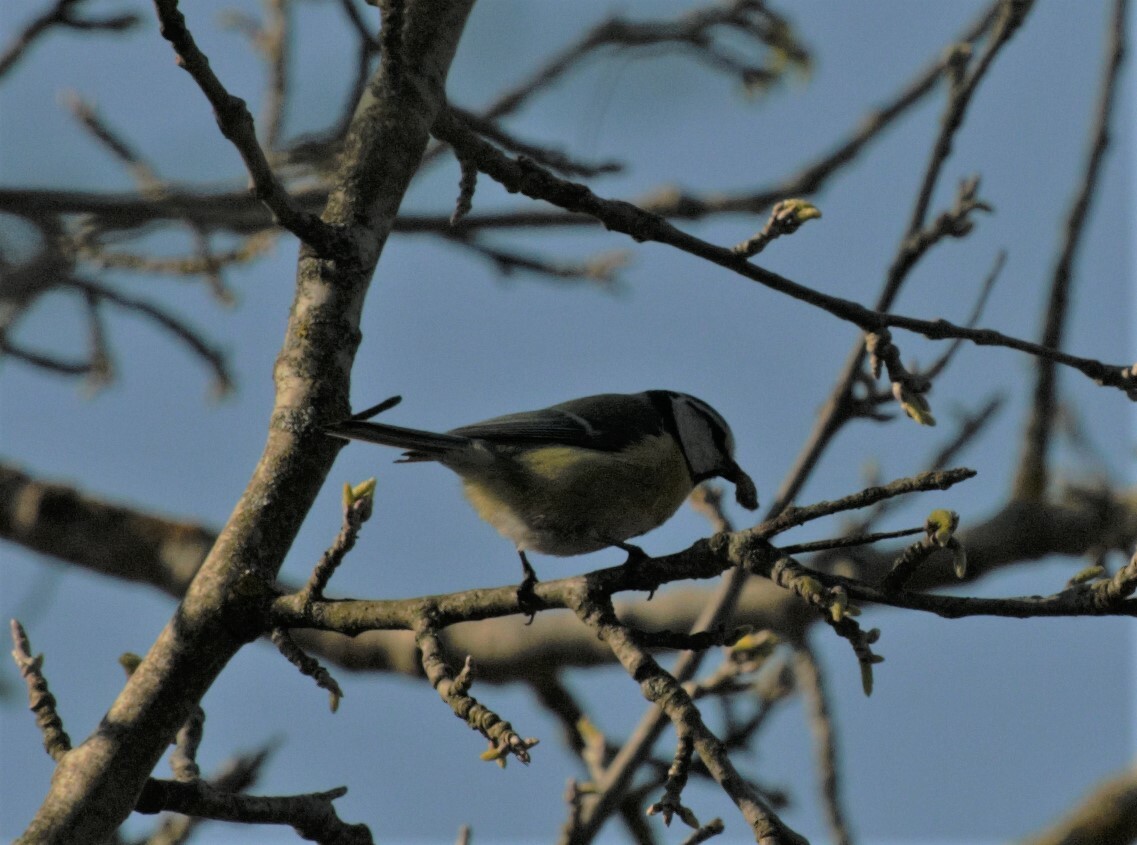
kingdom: Animalia
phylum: Chordata
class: Aves
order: Passeriformes
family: Paridae
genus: Cyanistes
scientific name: Cyanistes caeruleus
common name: Eurasian blue tit
